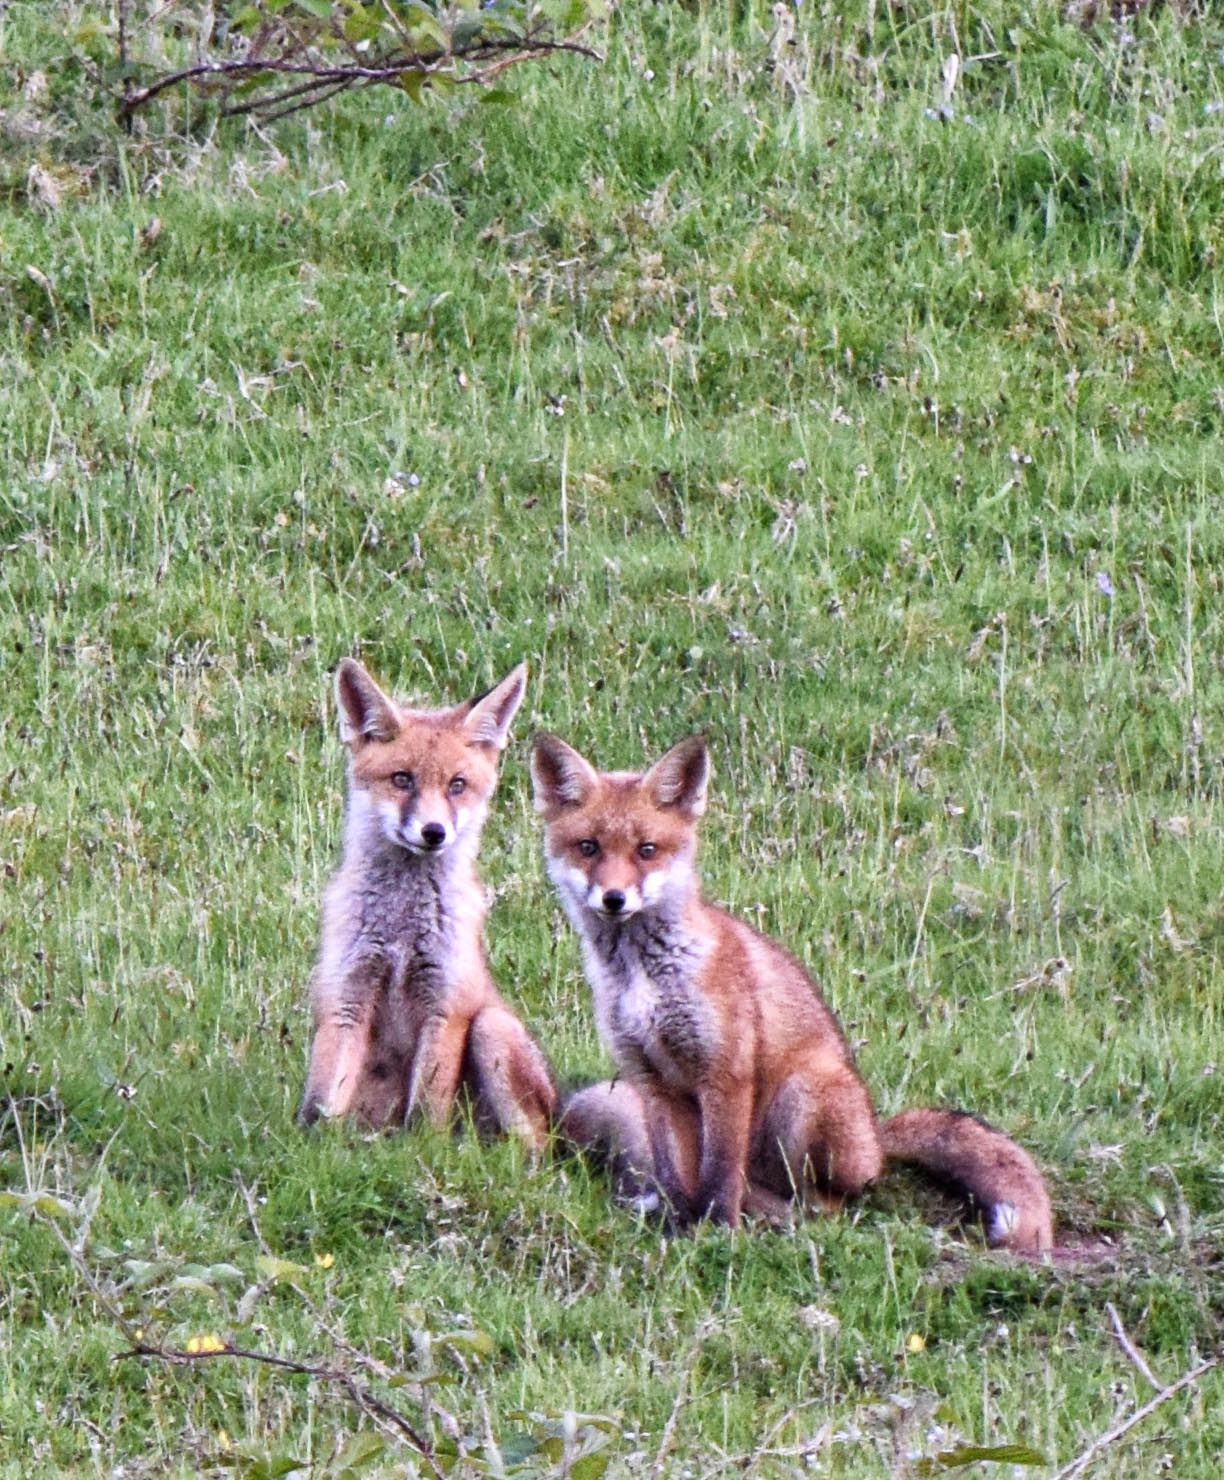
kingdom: Animalia
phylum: Chordata
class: Mammalia
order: Carnivora
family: Canidae
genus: Vulpes
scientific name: Vulpes vulpes
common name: Red fox
